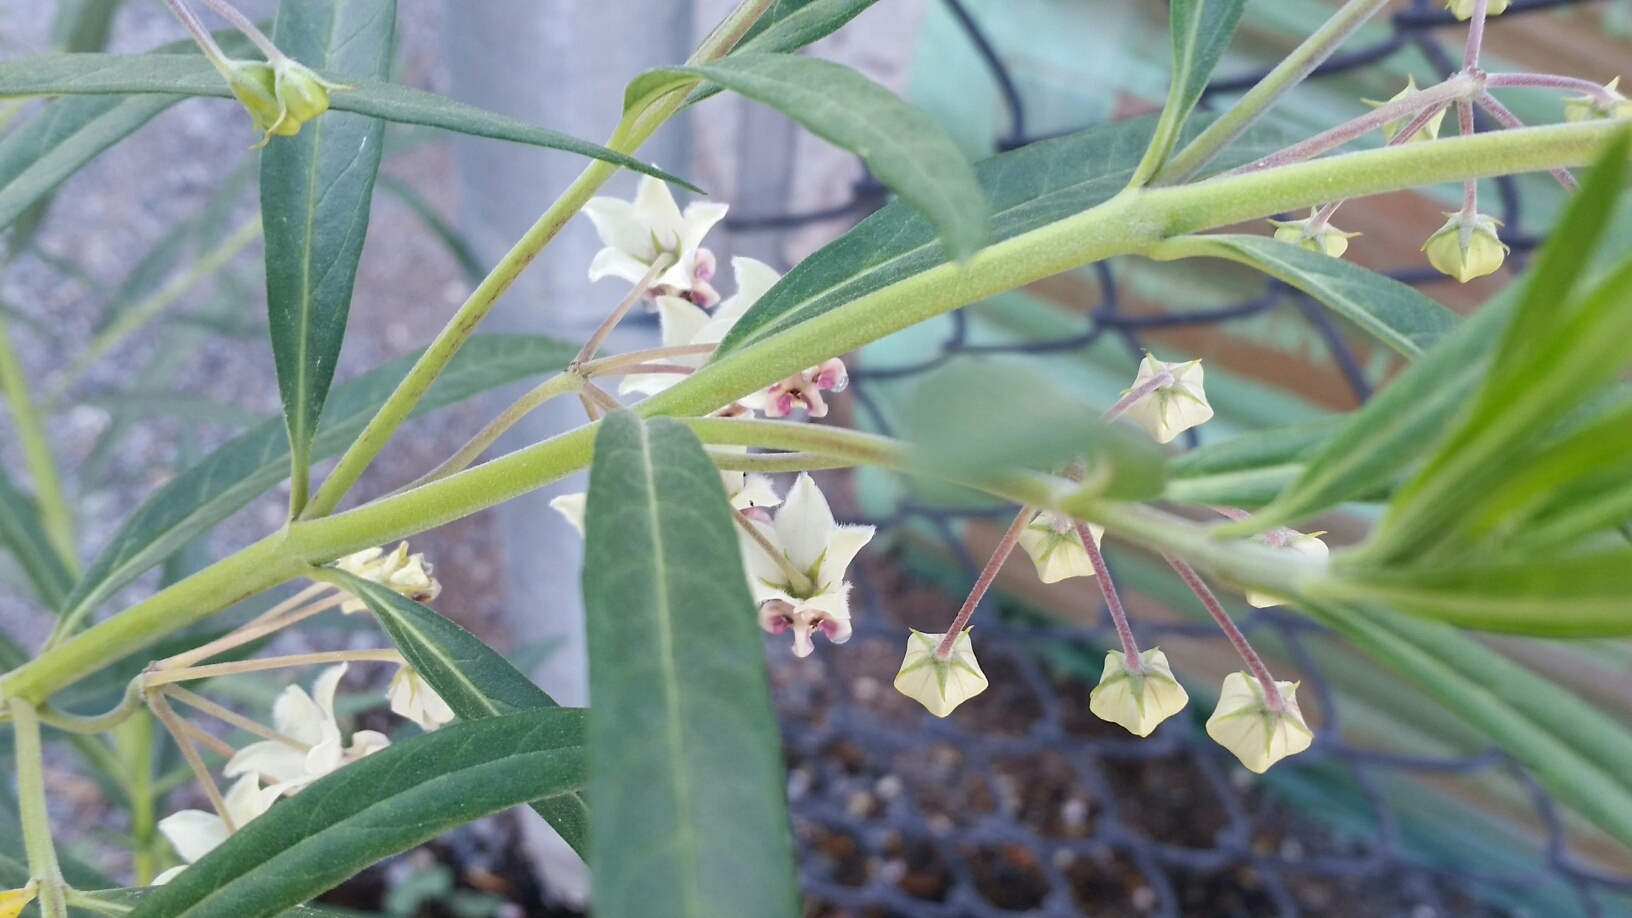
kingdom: Plantae
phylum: Tracheophyta
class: Magnoliopsida
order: Gentianales
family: Apocynaceae
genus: Gomphocarpus
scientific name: Gomphocarpus physocarpus
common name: Balloon cotton bush
